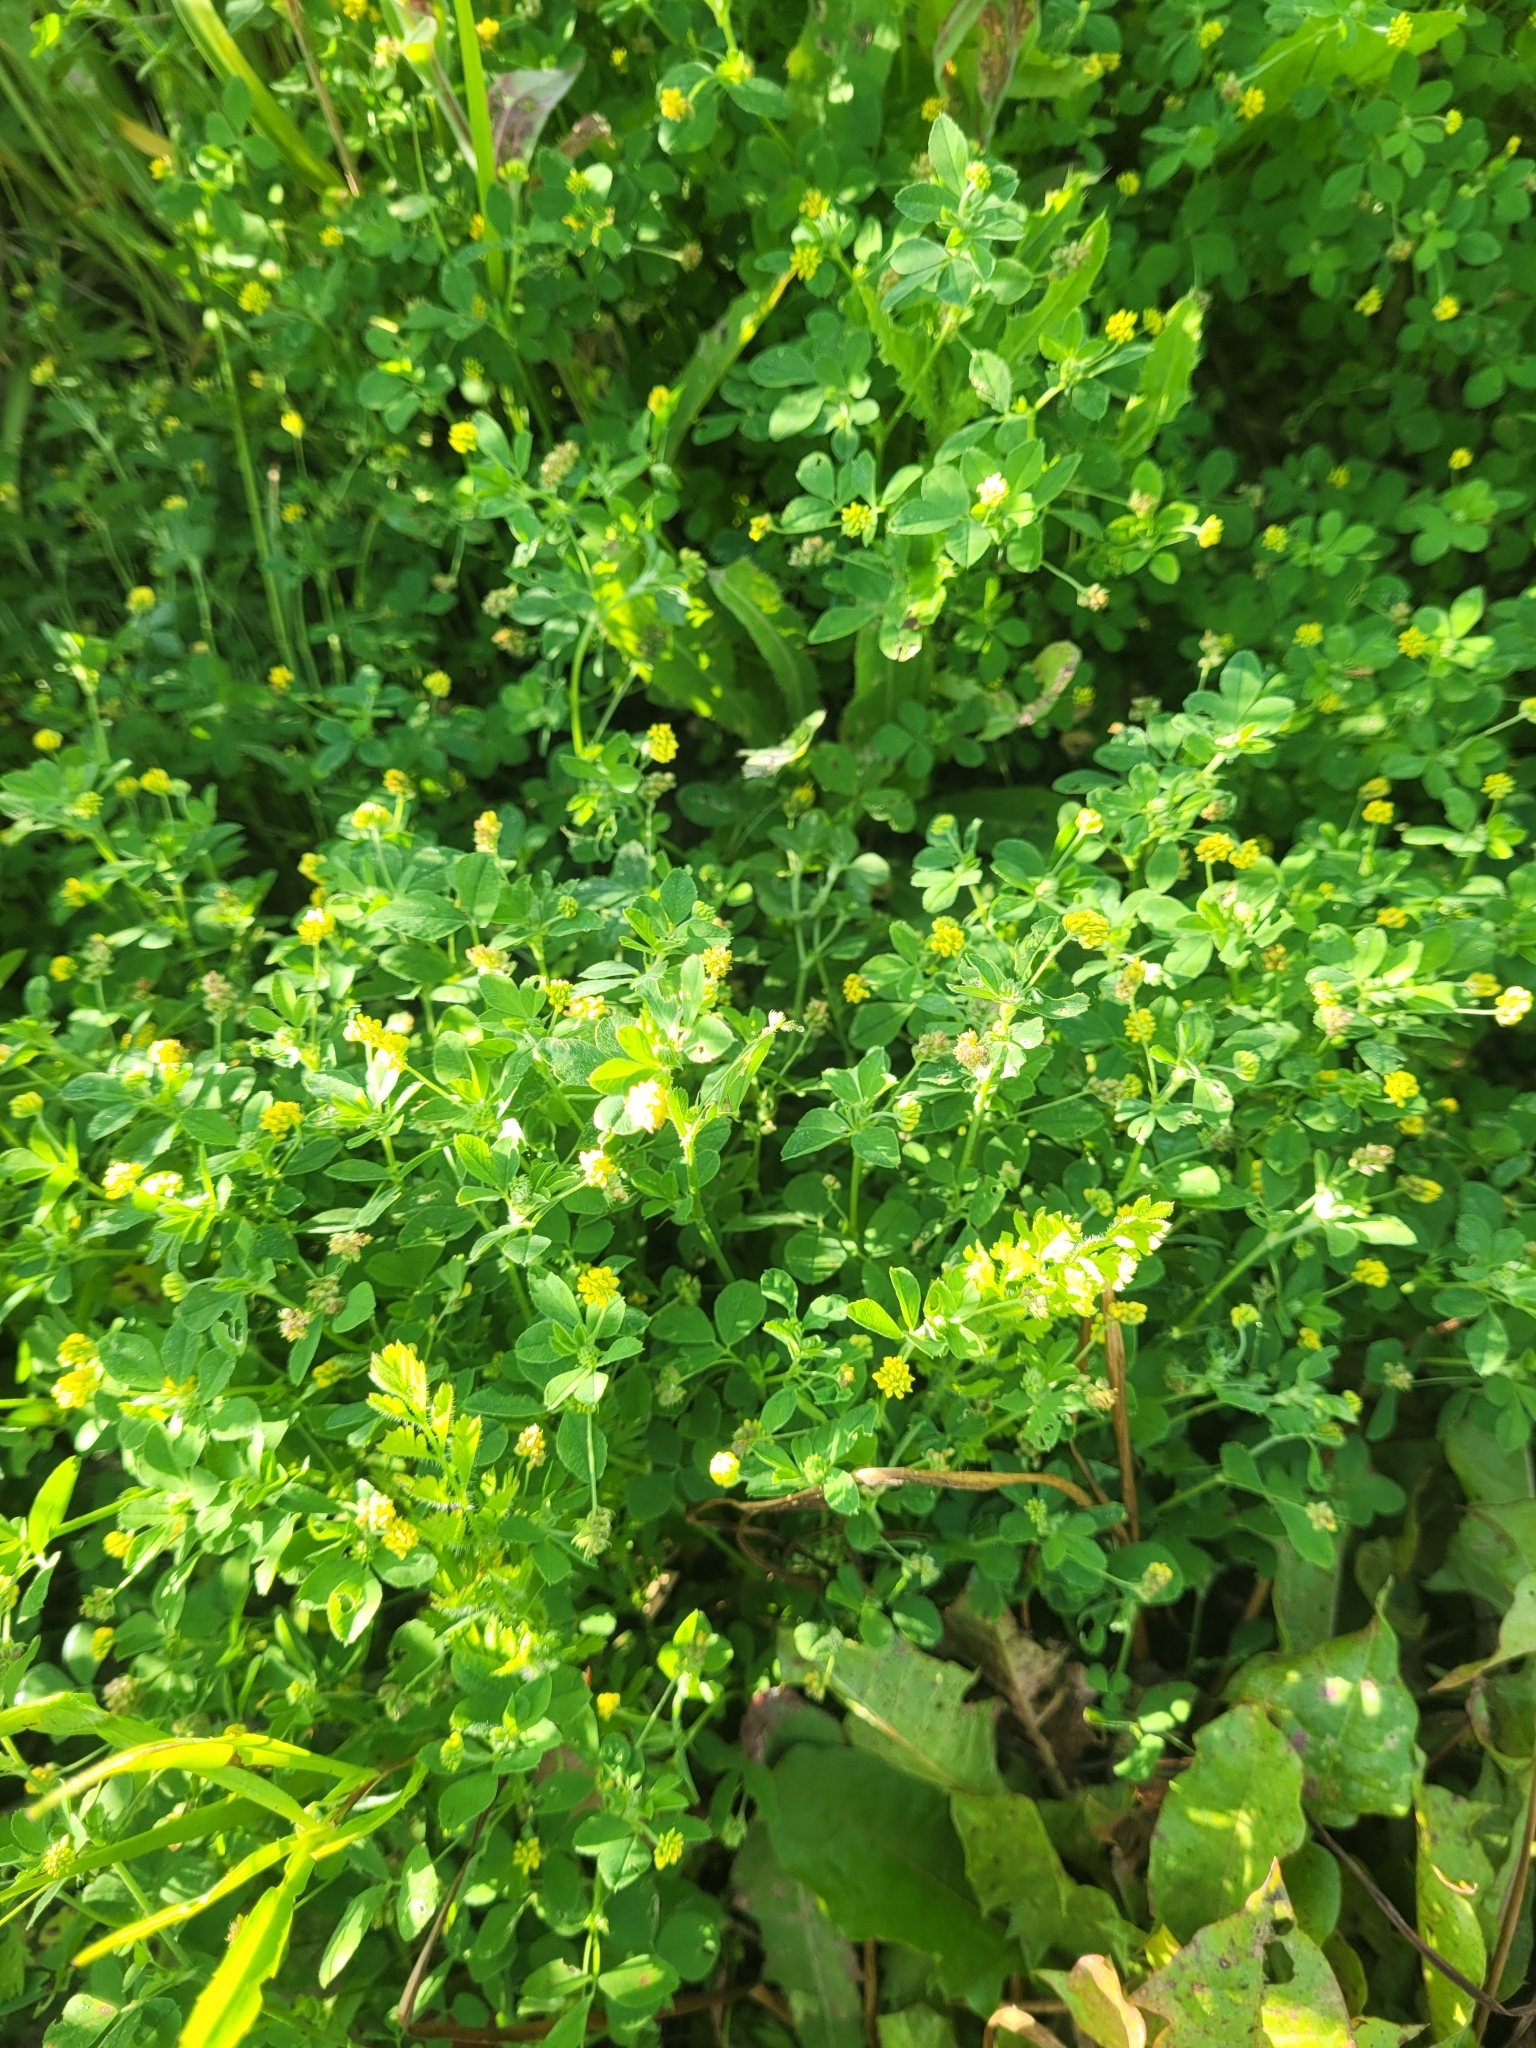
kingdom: Plantae
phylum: Tracheophyta
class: Magnoliopsida
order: Fabales
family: Fabaceae
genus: Medicago
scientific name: Medicago lupulina
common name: Black medick
